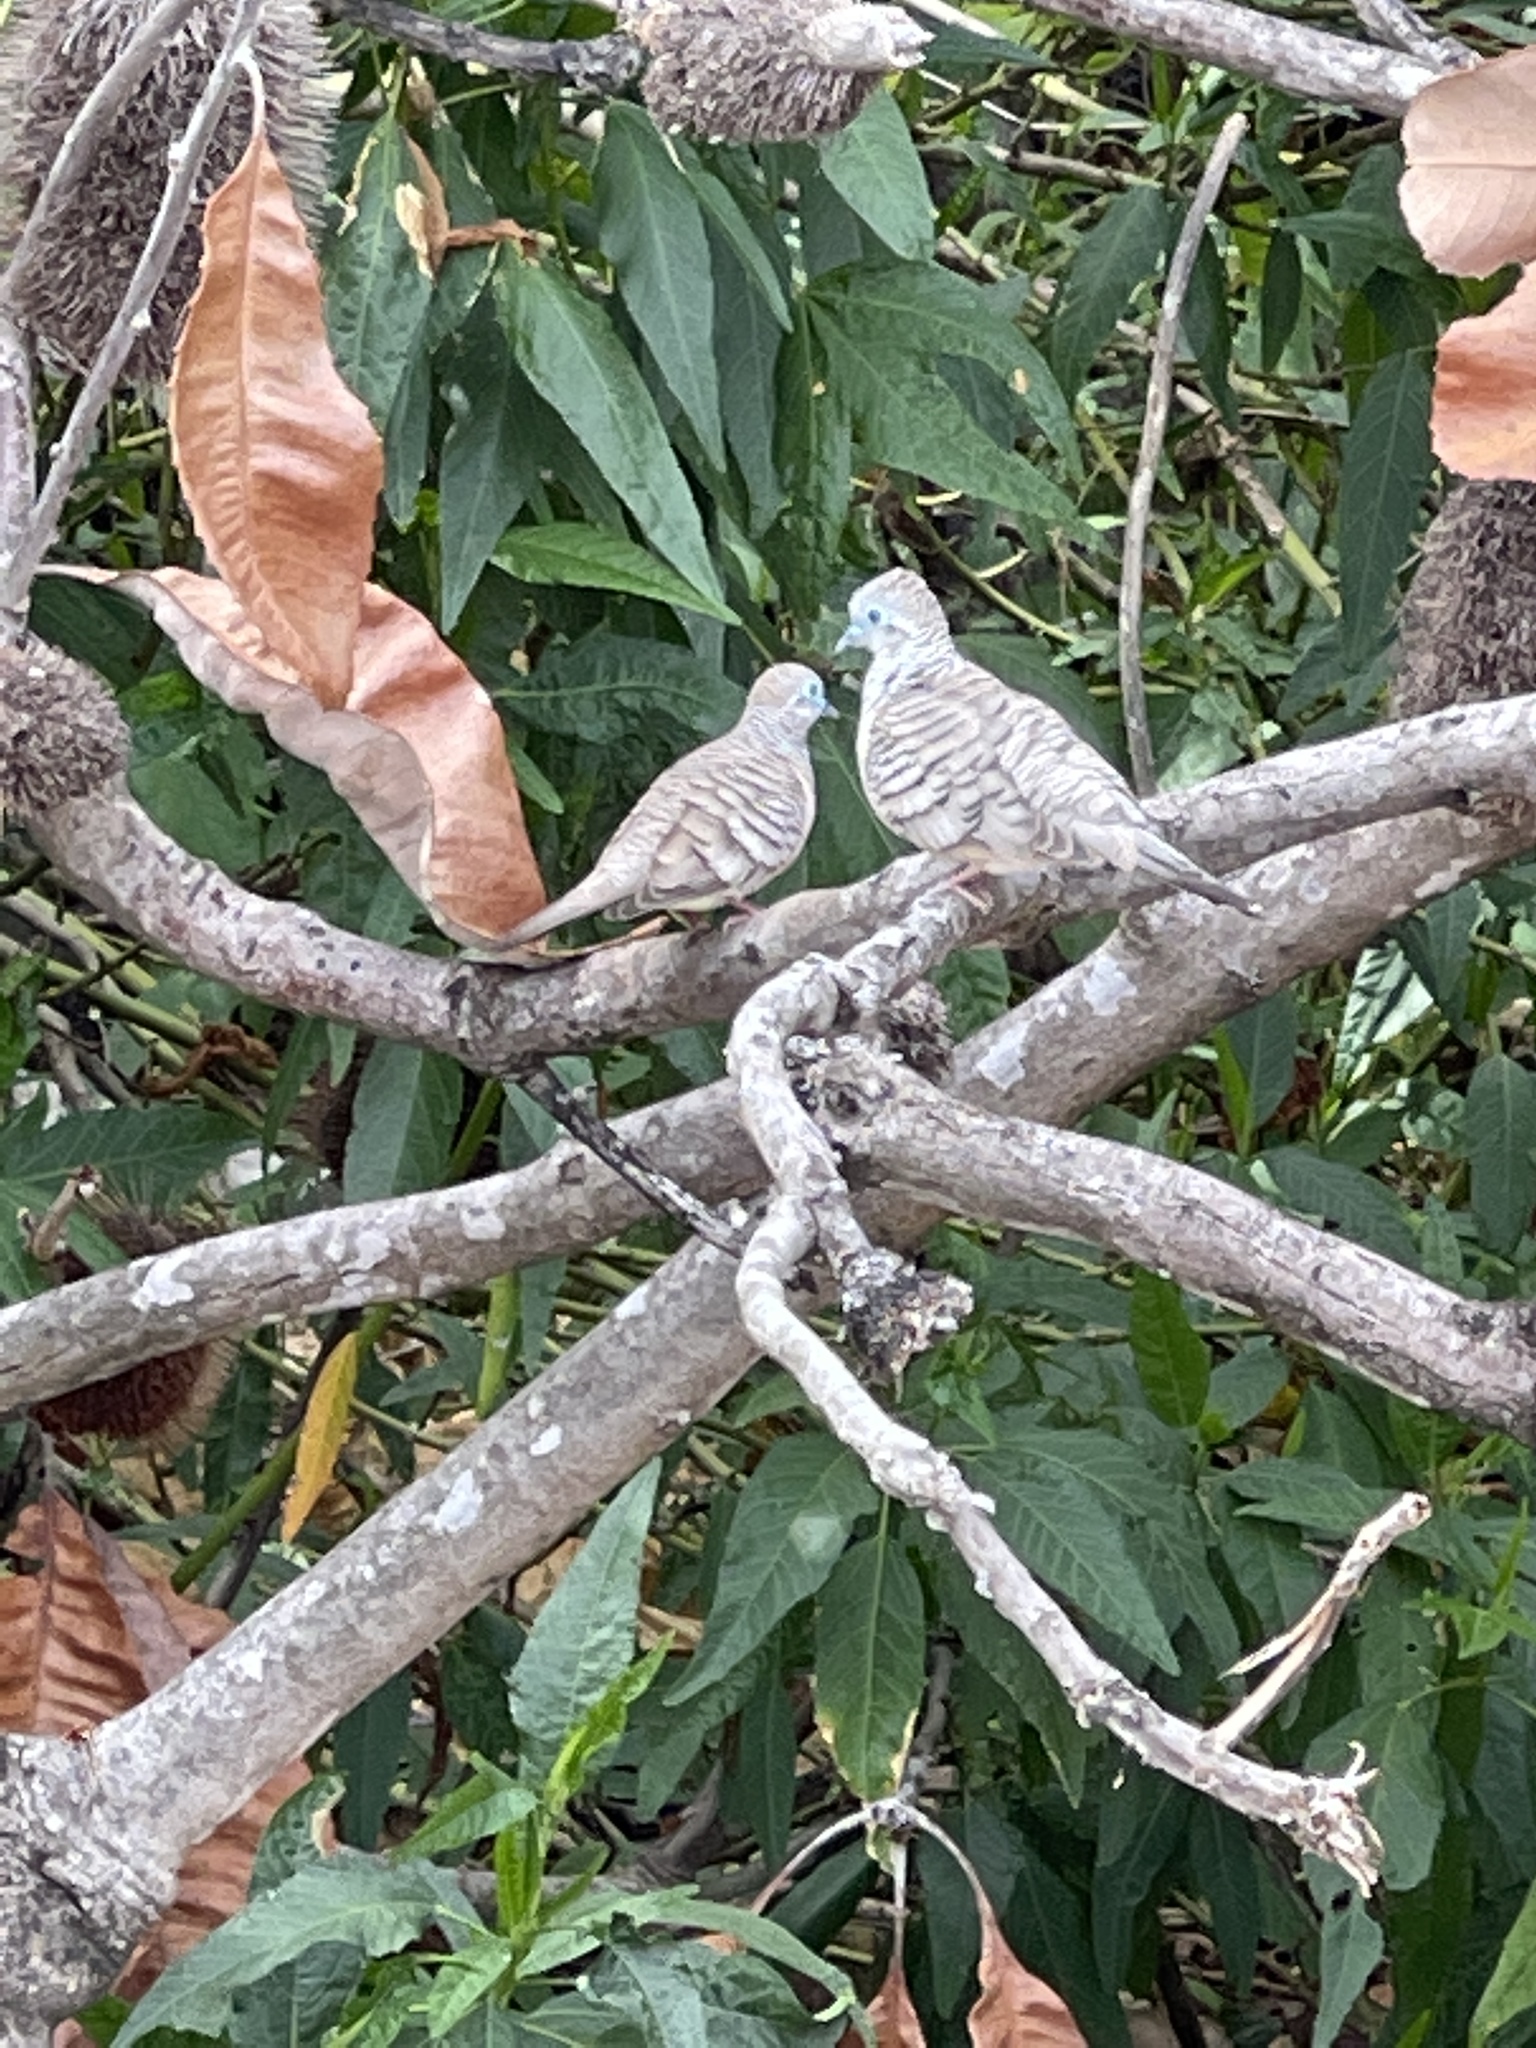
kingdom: Animalia
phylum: Chordata
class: Aves
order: Columbiformes
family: Columbidae
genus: Geopelia
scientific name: Geopelia placida
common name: Peaceful dove
